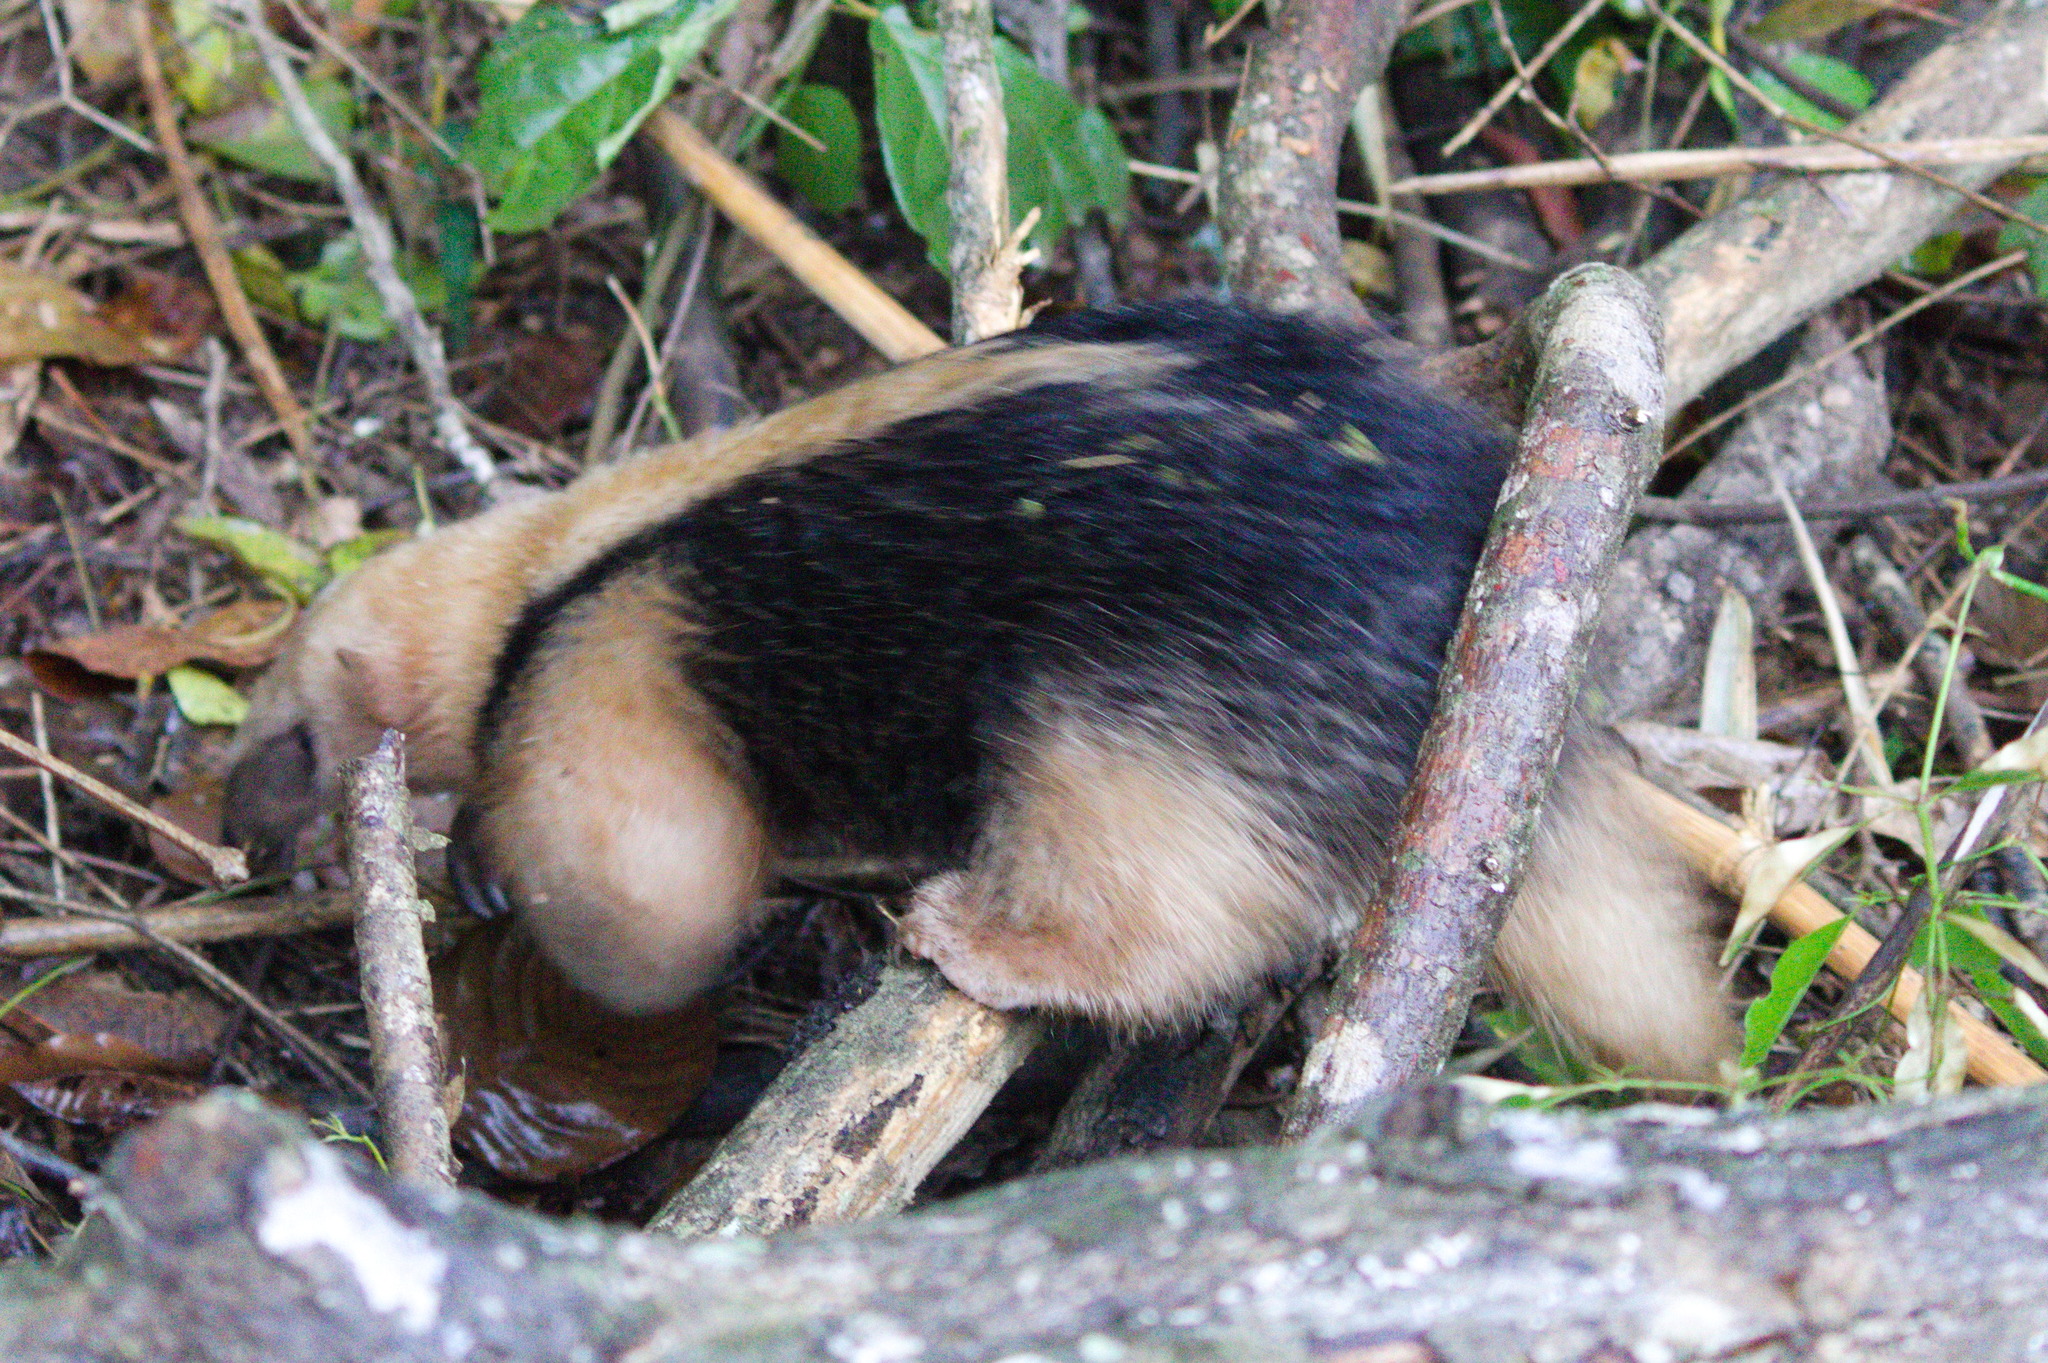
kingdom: Animalia
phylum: Chordata
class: Mammalia
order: Pilosa
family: Myrmecophagidae
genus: Tamandua
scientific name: Tamandua tetradactyla
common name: Southern tamandua
